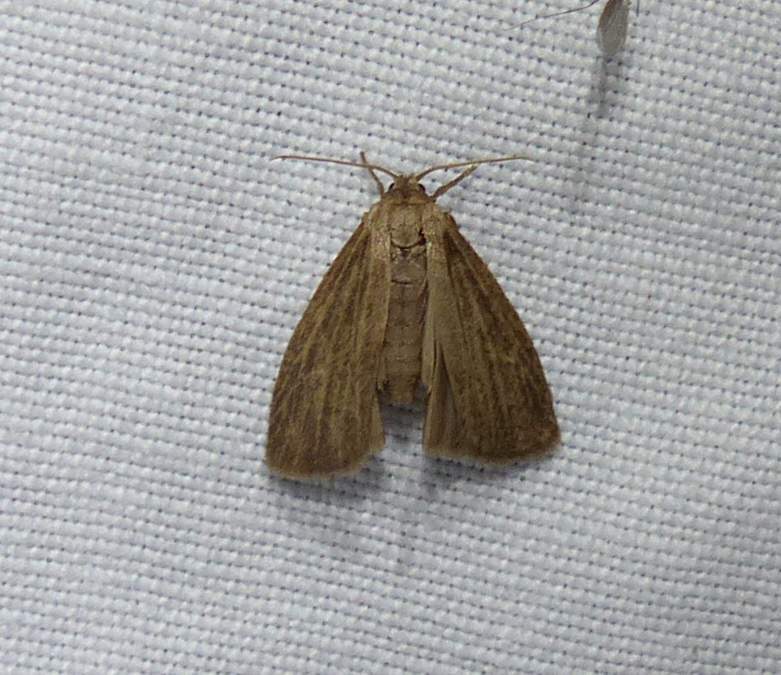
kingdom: Animalia
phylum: Arthropoda
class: Insecta
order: Lepidoptera
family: Erebidae
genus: Crambidia
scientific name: Crambidia pallida
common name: Pale lichen moth
